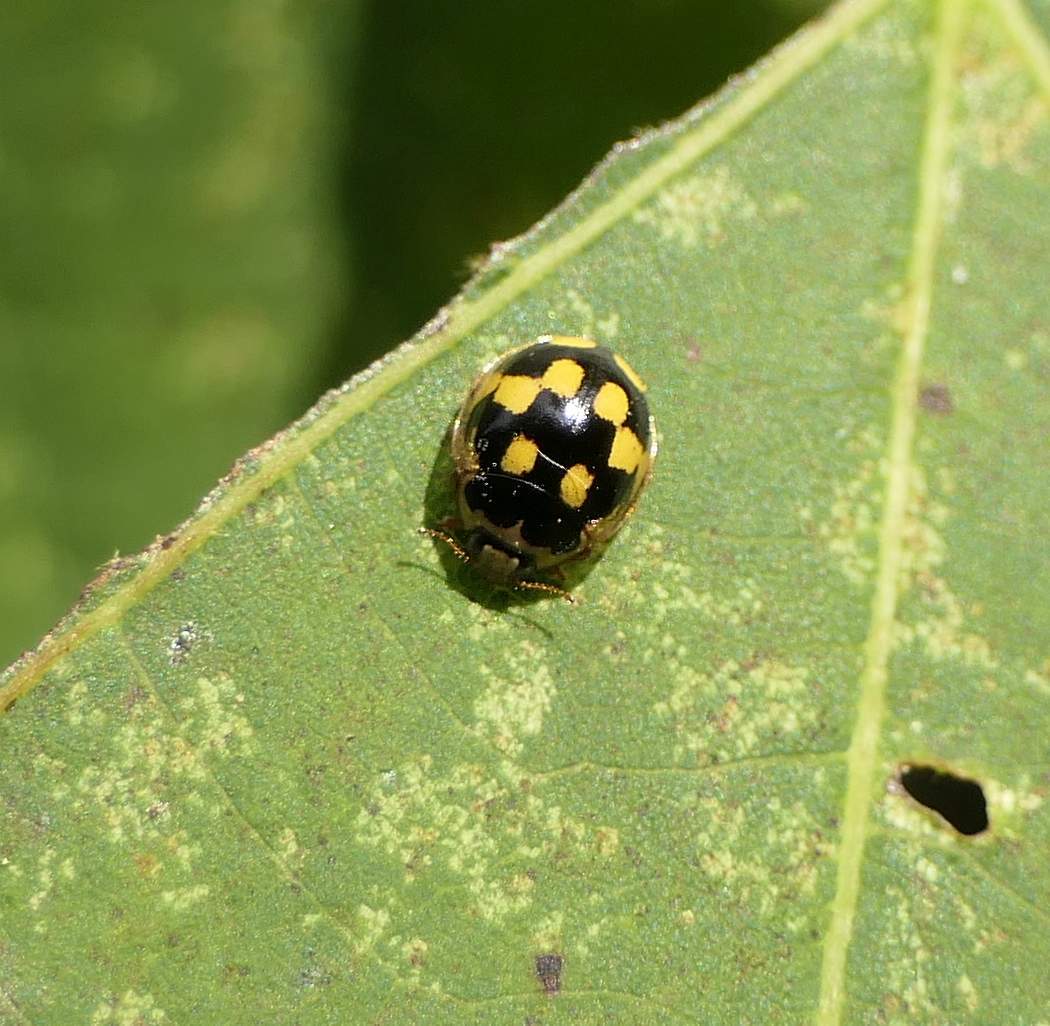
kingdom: Animalia
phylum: Arthropoda
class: Insecta
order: Coleoptera
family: Coccinellidae
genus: Propylaea
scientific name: Propylaea quatuordecimpunctata
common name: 14-spotted ladybird beetle
